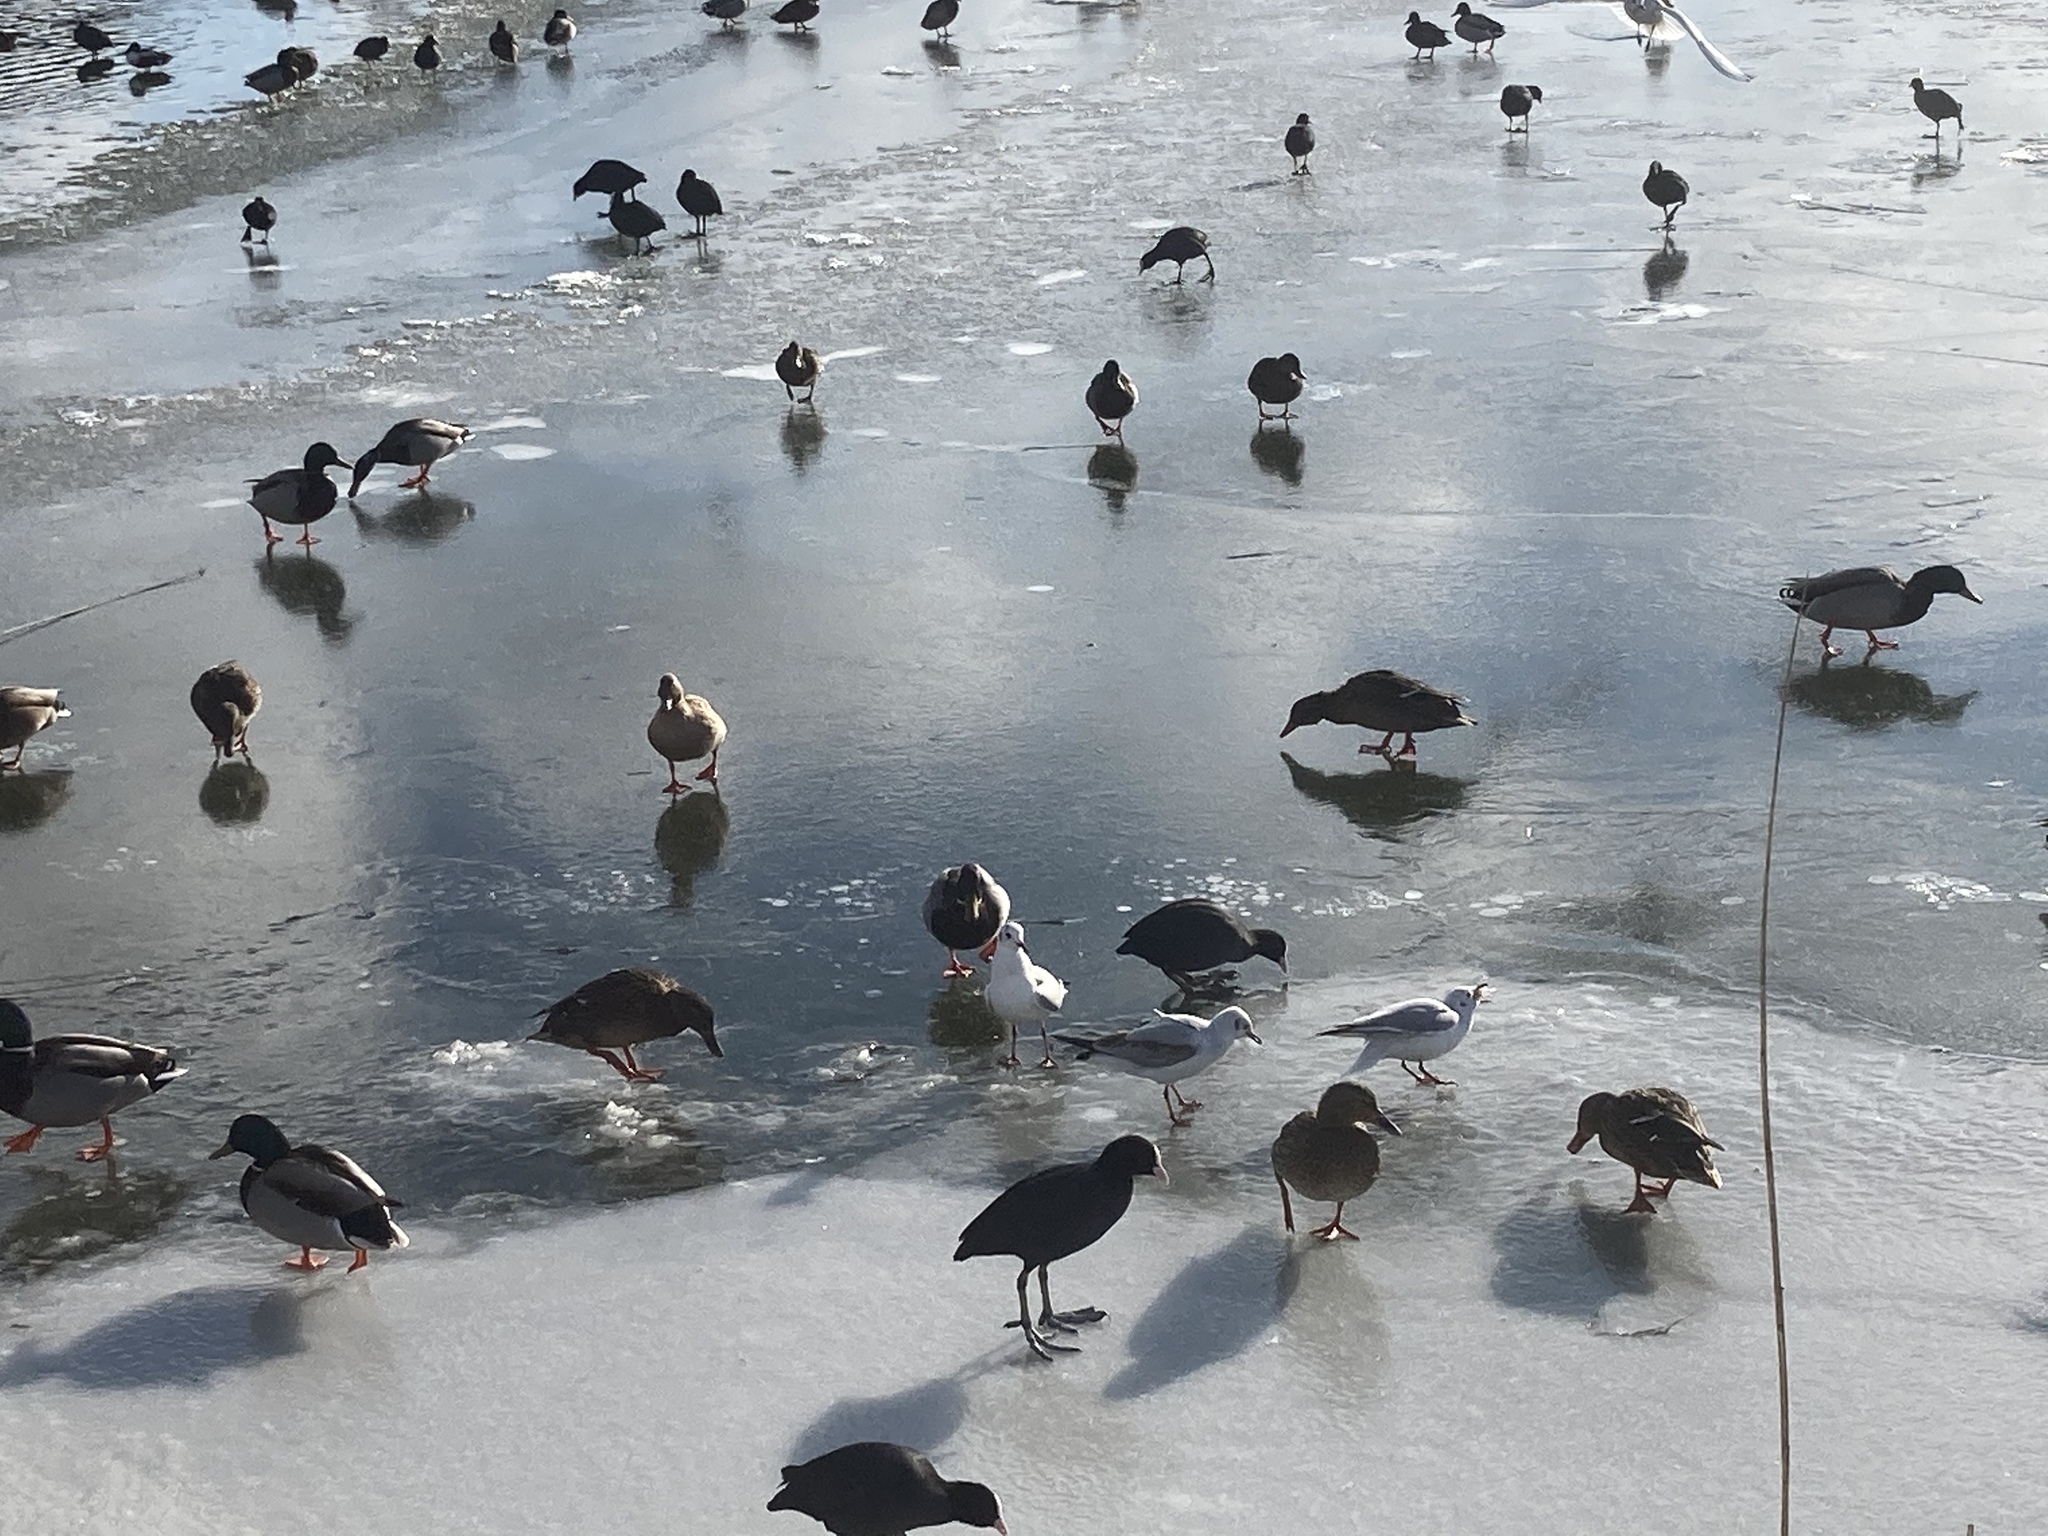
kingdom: Animalia
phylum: Chordata
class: Aves
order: Anseriformes
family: Anatidae
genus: Spatula
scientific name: Spatula clypeata
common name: Northern shoveler
